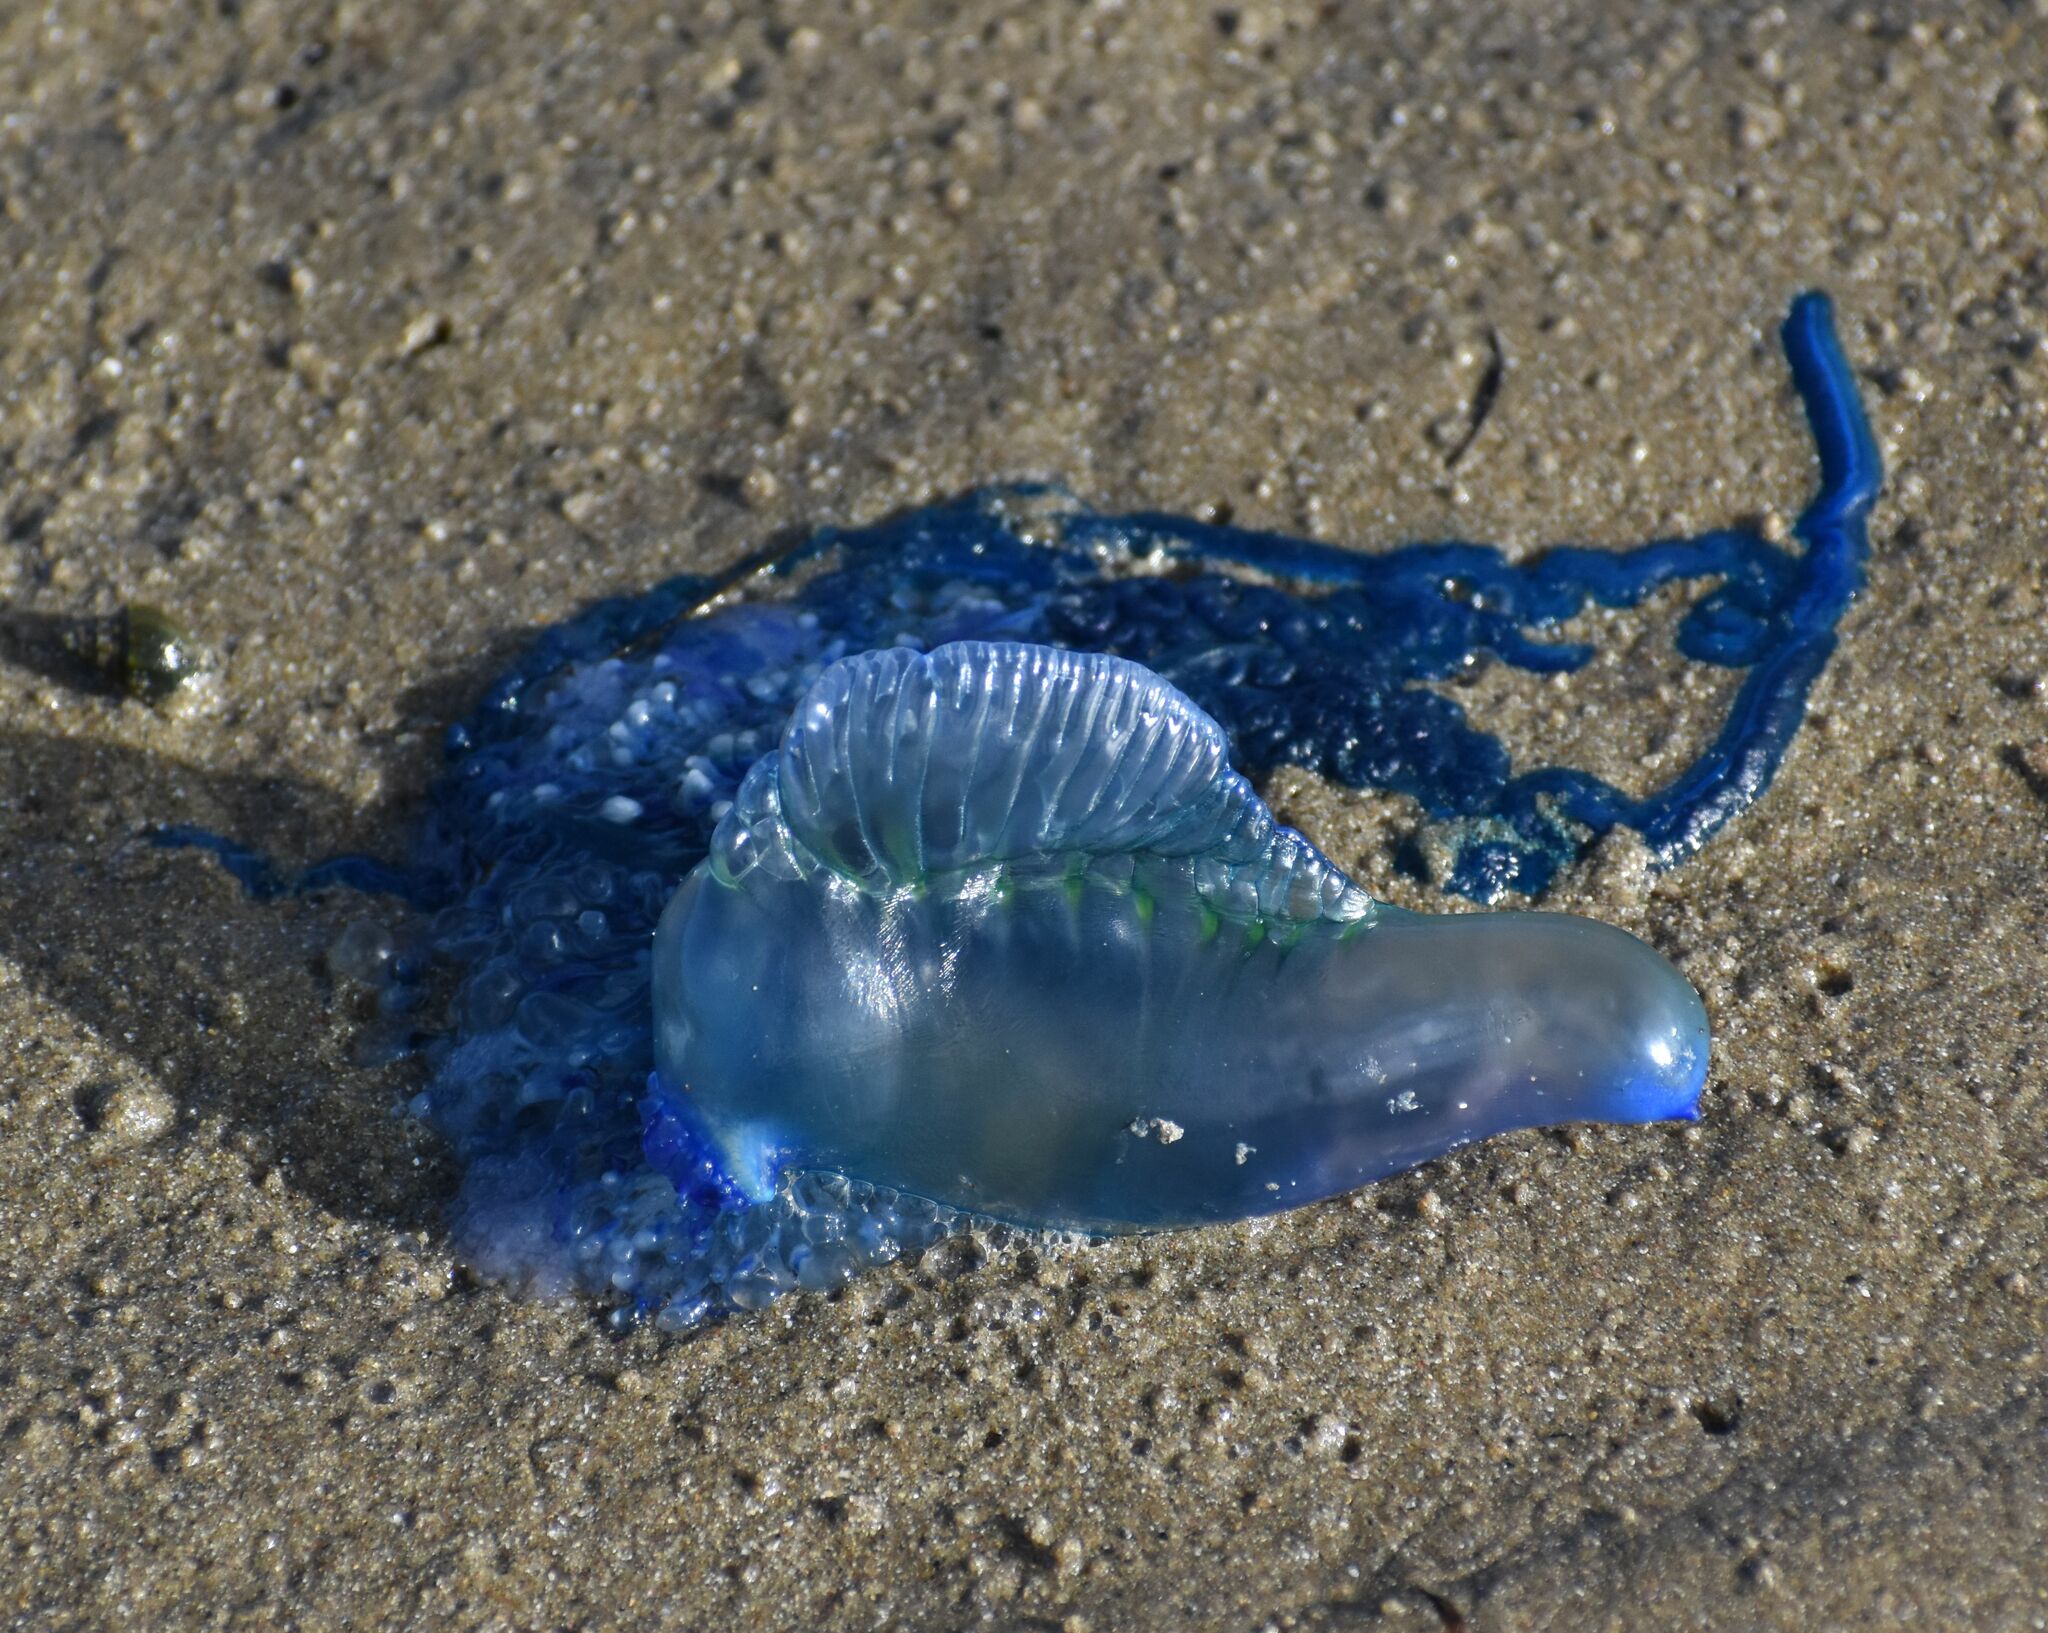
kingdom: Animalia
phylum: Cnidaria
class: Hydrozoa
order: Siphonophorae
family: Physaliidae
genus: Physalia
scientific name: Physalia physalis
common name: Portuguese man-of-war
